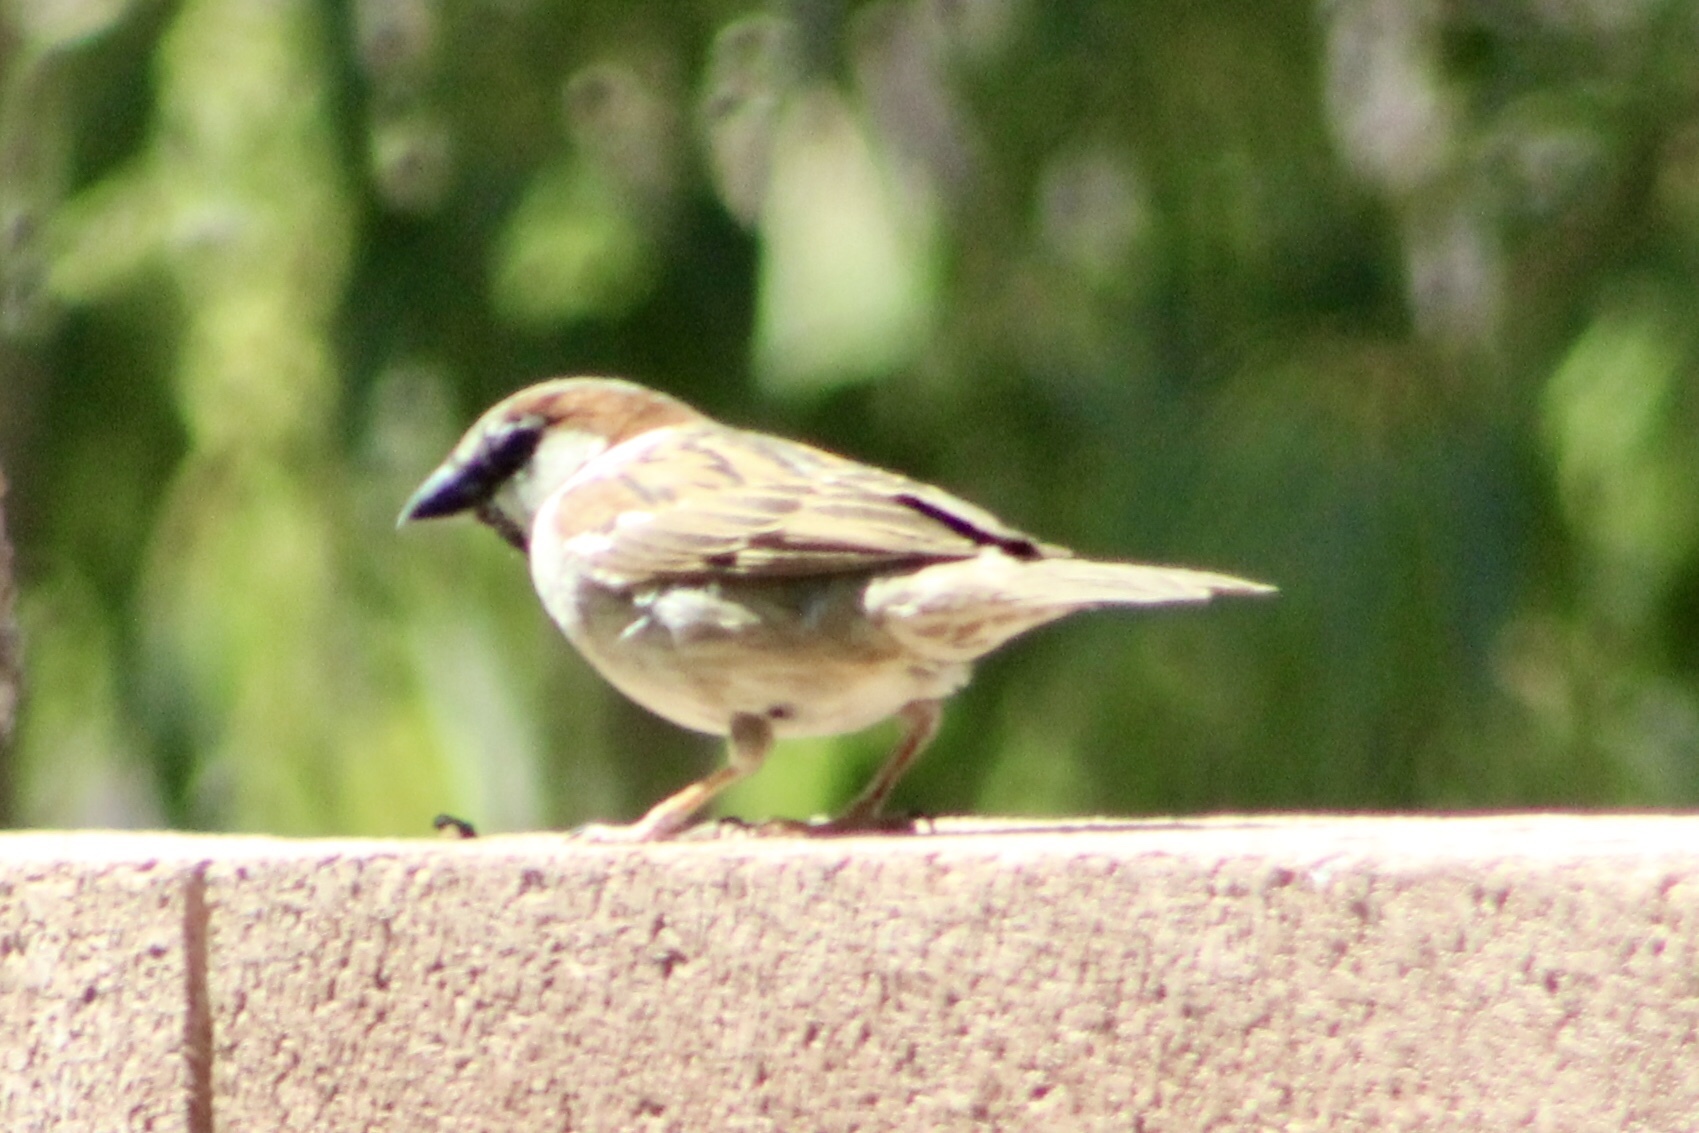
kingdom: Animalia
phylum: Chordata
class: Aves
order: Passeriformes
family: Passeridae
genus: Passer
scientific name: Passer domesticus
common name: House sparrow
